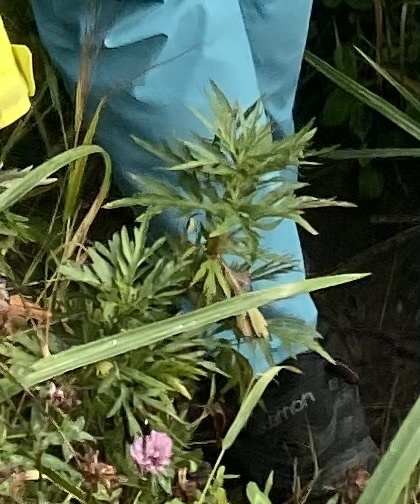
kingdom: Plantae
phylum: Tracheophyta
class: Magnoliopsida
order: Asterales
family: Asteraceae
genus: Artemisia
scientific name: Artemisia vulgaris
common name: Mugwort
